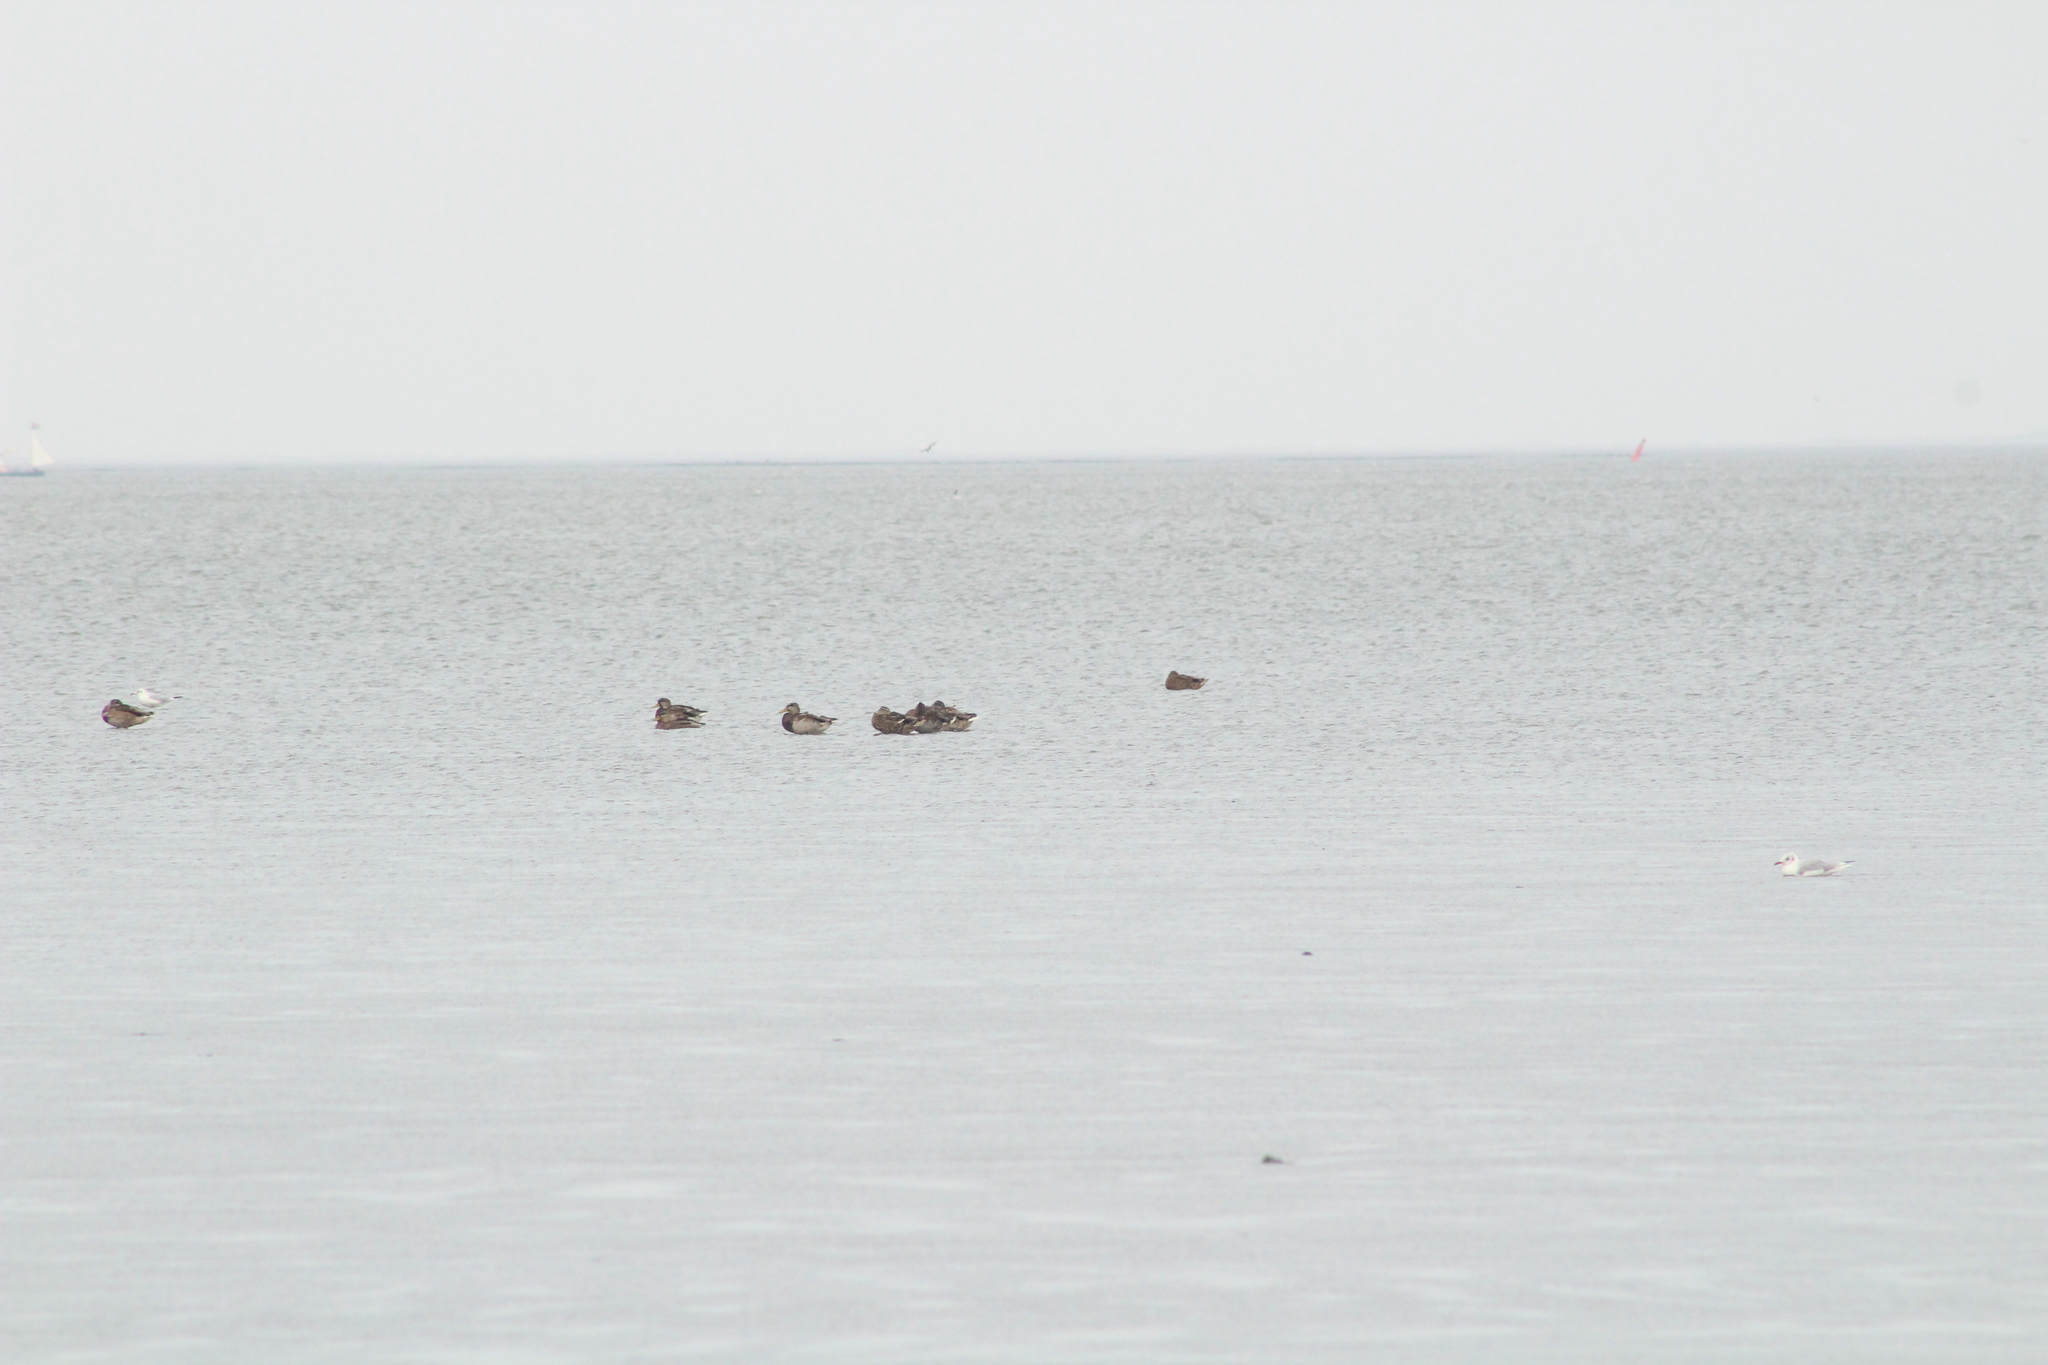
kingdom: Animalia
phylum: Chordata
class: Aves
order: Anseriformes
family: Anatidae
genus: Anas
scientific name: Anas platyrhynchos
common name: Mallard
